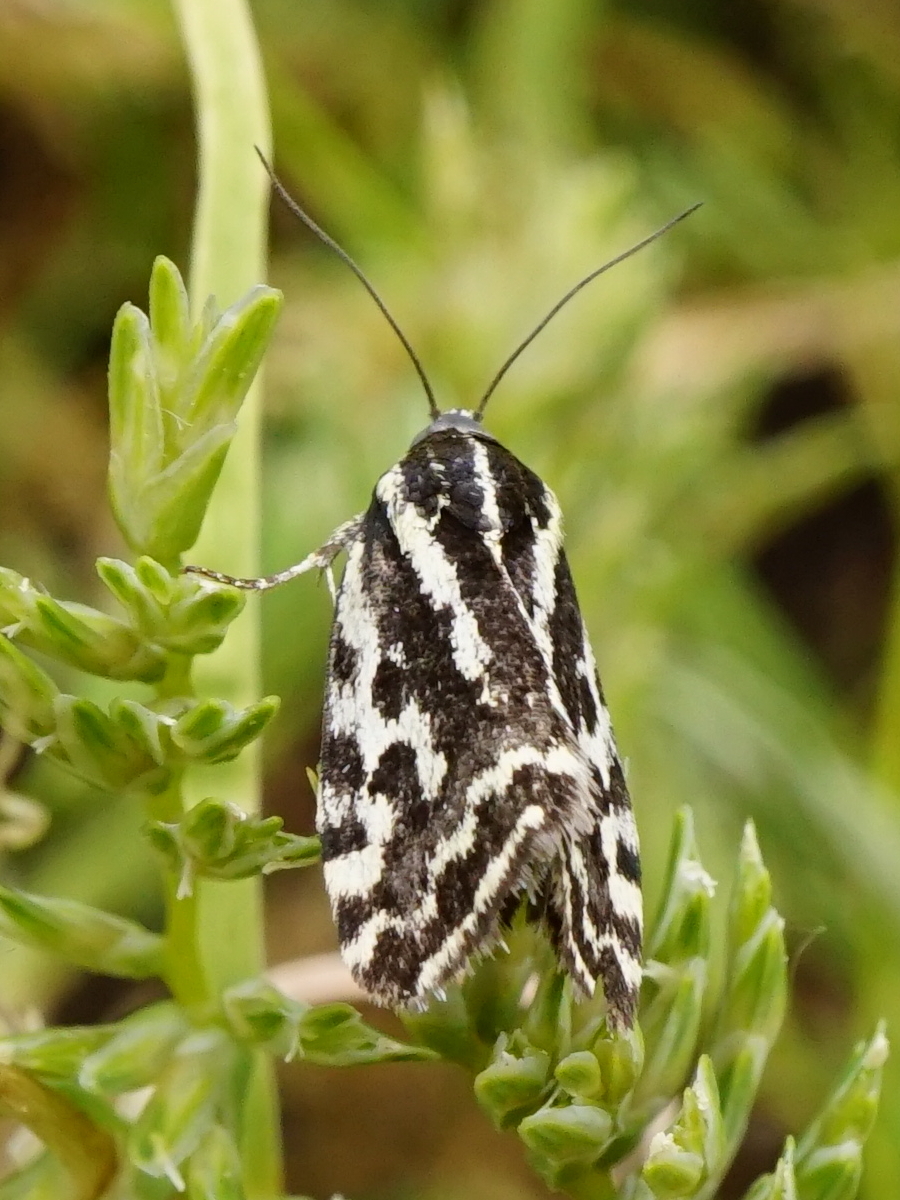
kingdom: Animalia
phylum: Arthropoda
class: Insecta
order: Lepidoptera
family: Noctuidae
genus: Acontia
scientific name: Acontia trabealis
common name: Spotted sulphur
